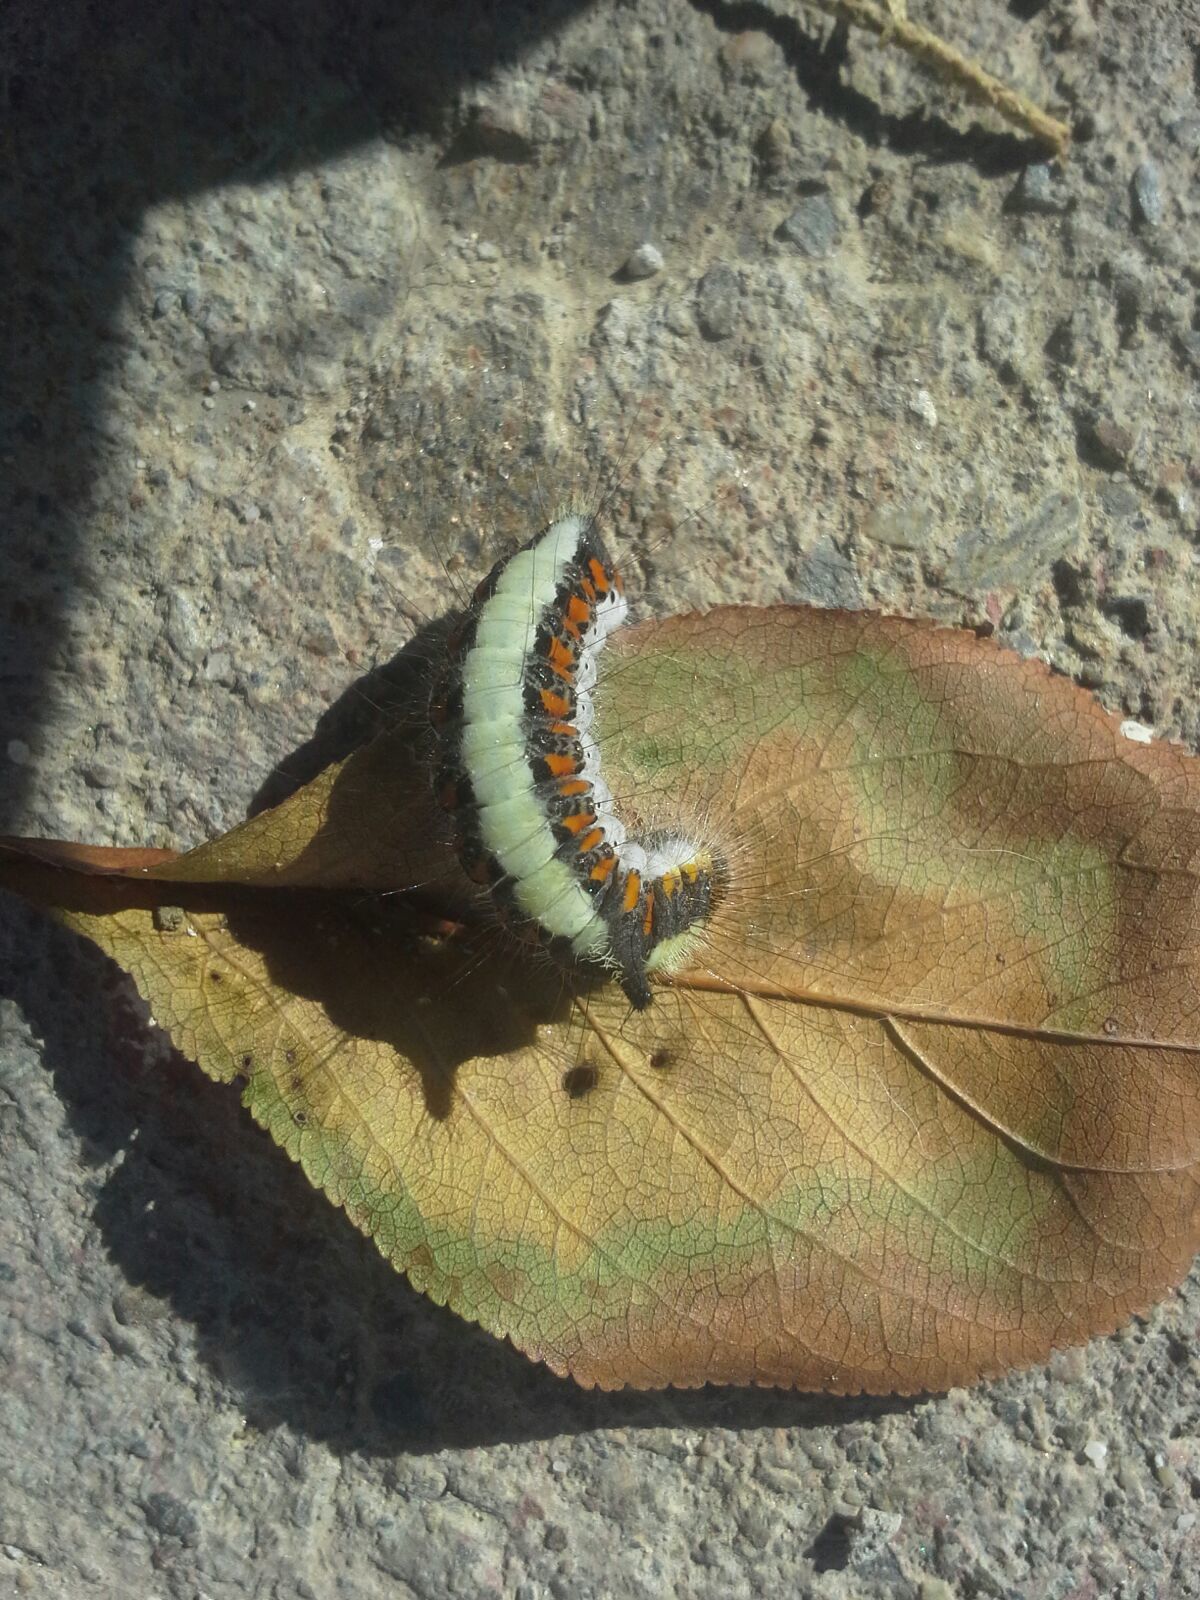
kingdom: Animalia
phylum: Arthropoda
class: Insecta
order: Lepidoptera
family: Noctuidae
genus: Acronicta
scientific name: Acronicta psi
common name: Grey dagger
